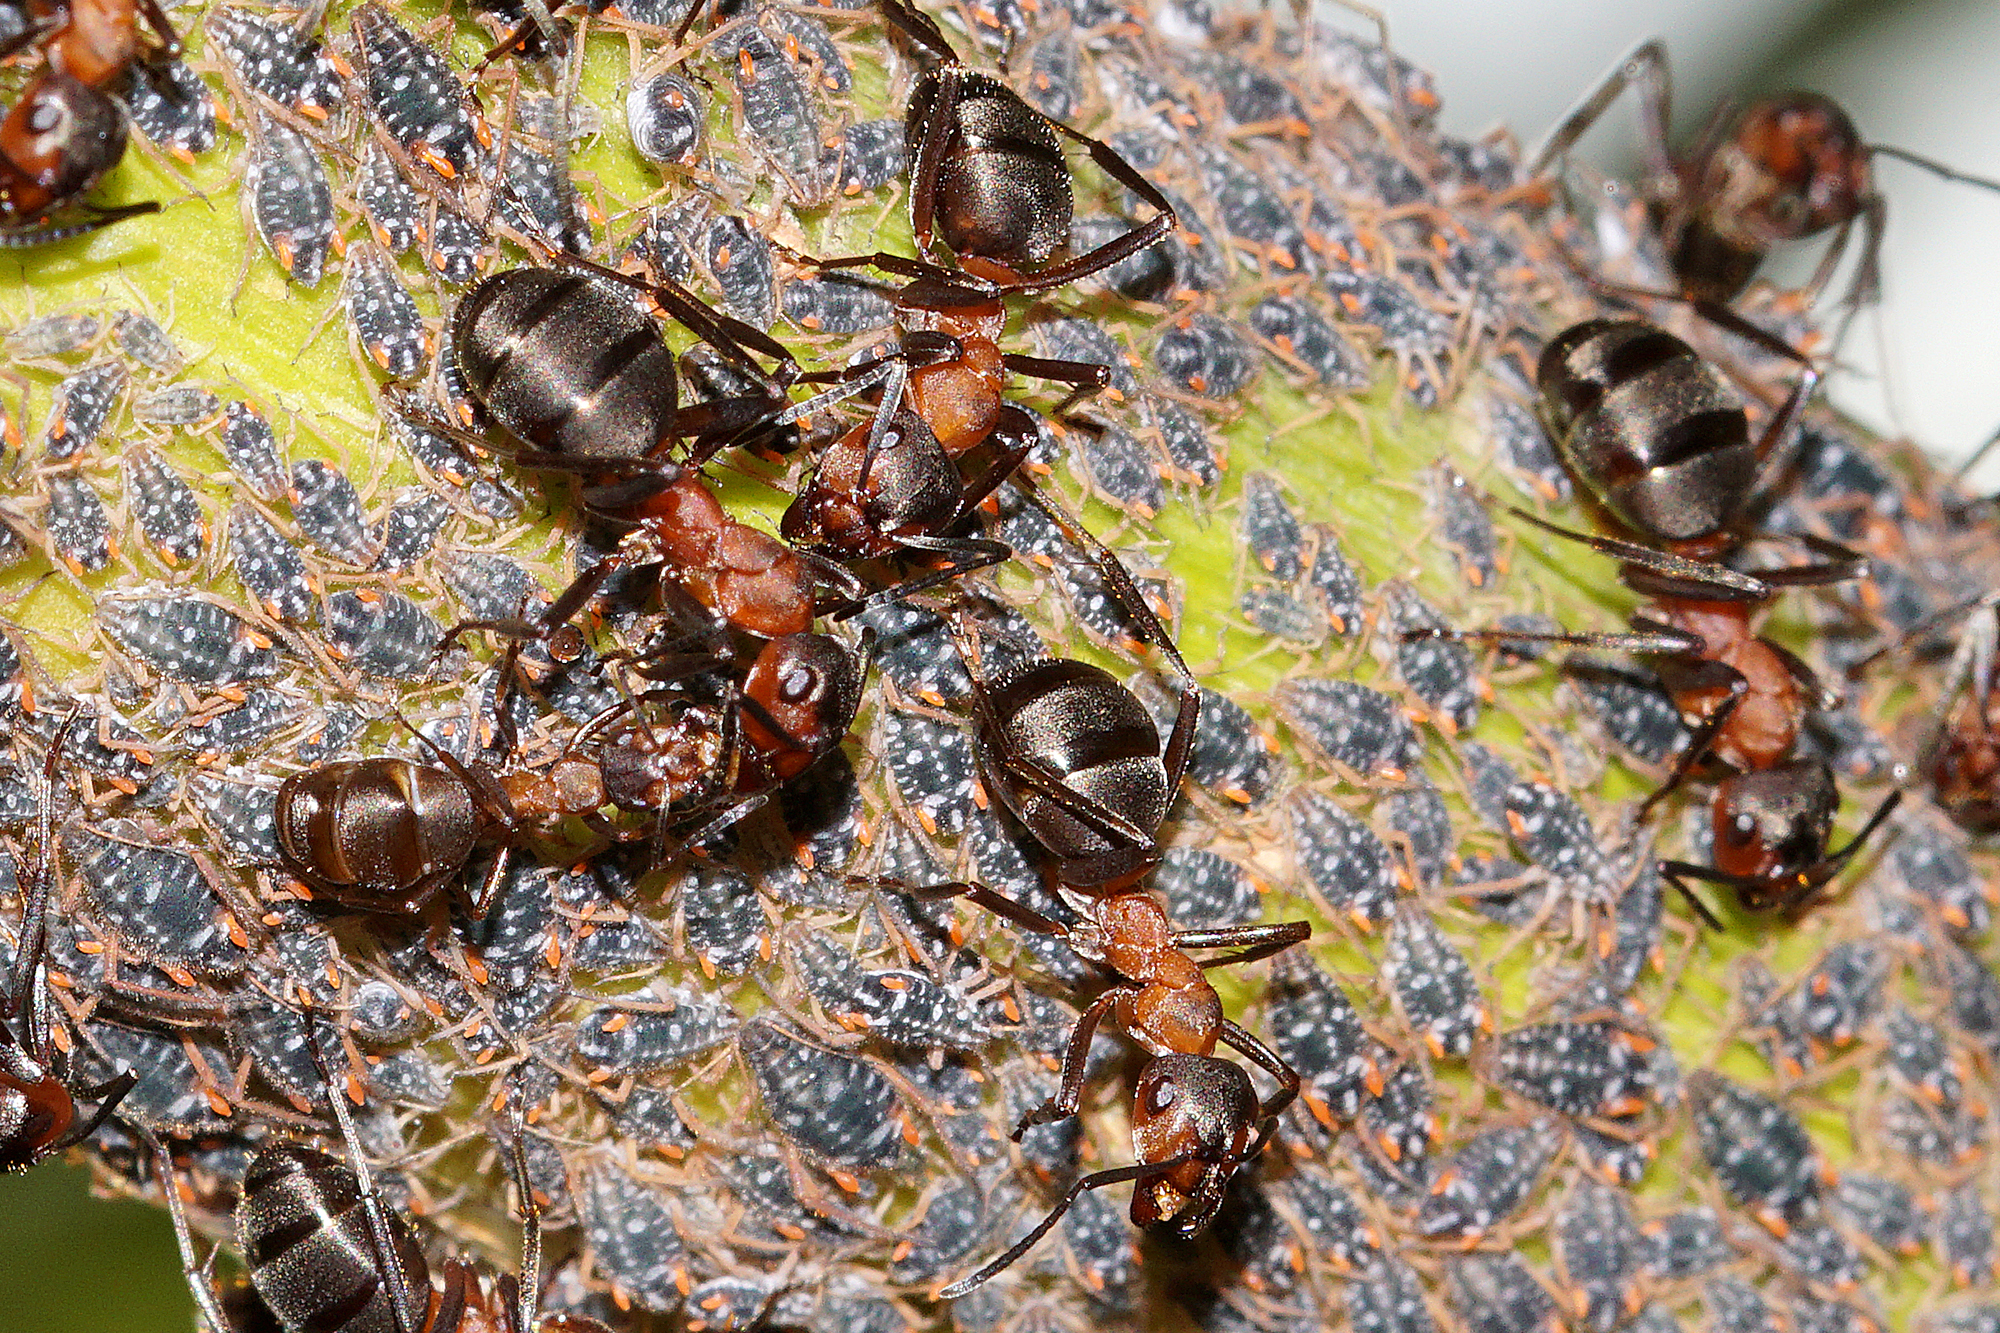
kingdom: Animalia
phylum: Arthropoda
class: Insecta
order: Hemiptera
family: Aphididae
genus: Pterocomma
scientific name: Pterocomma salicis
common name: Aphid
